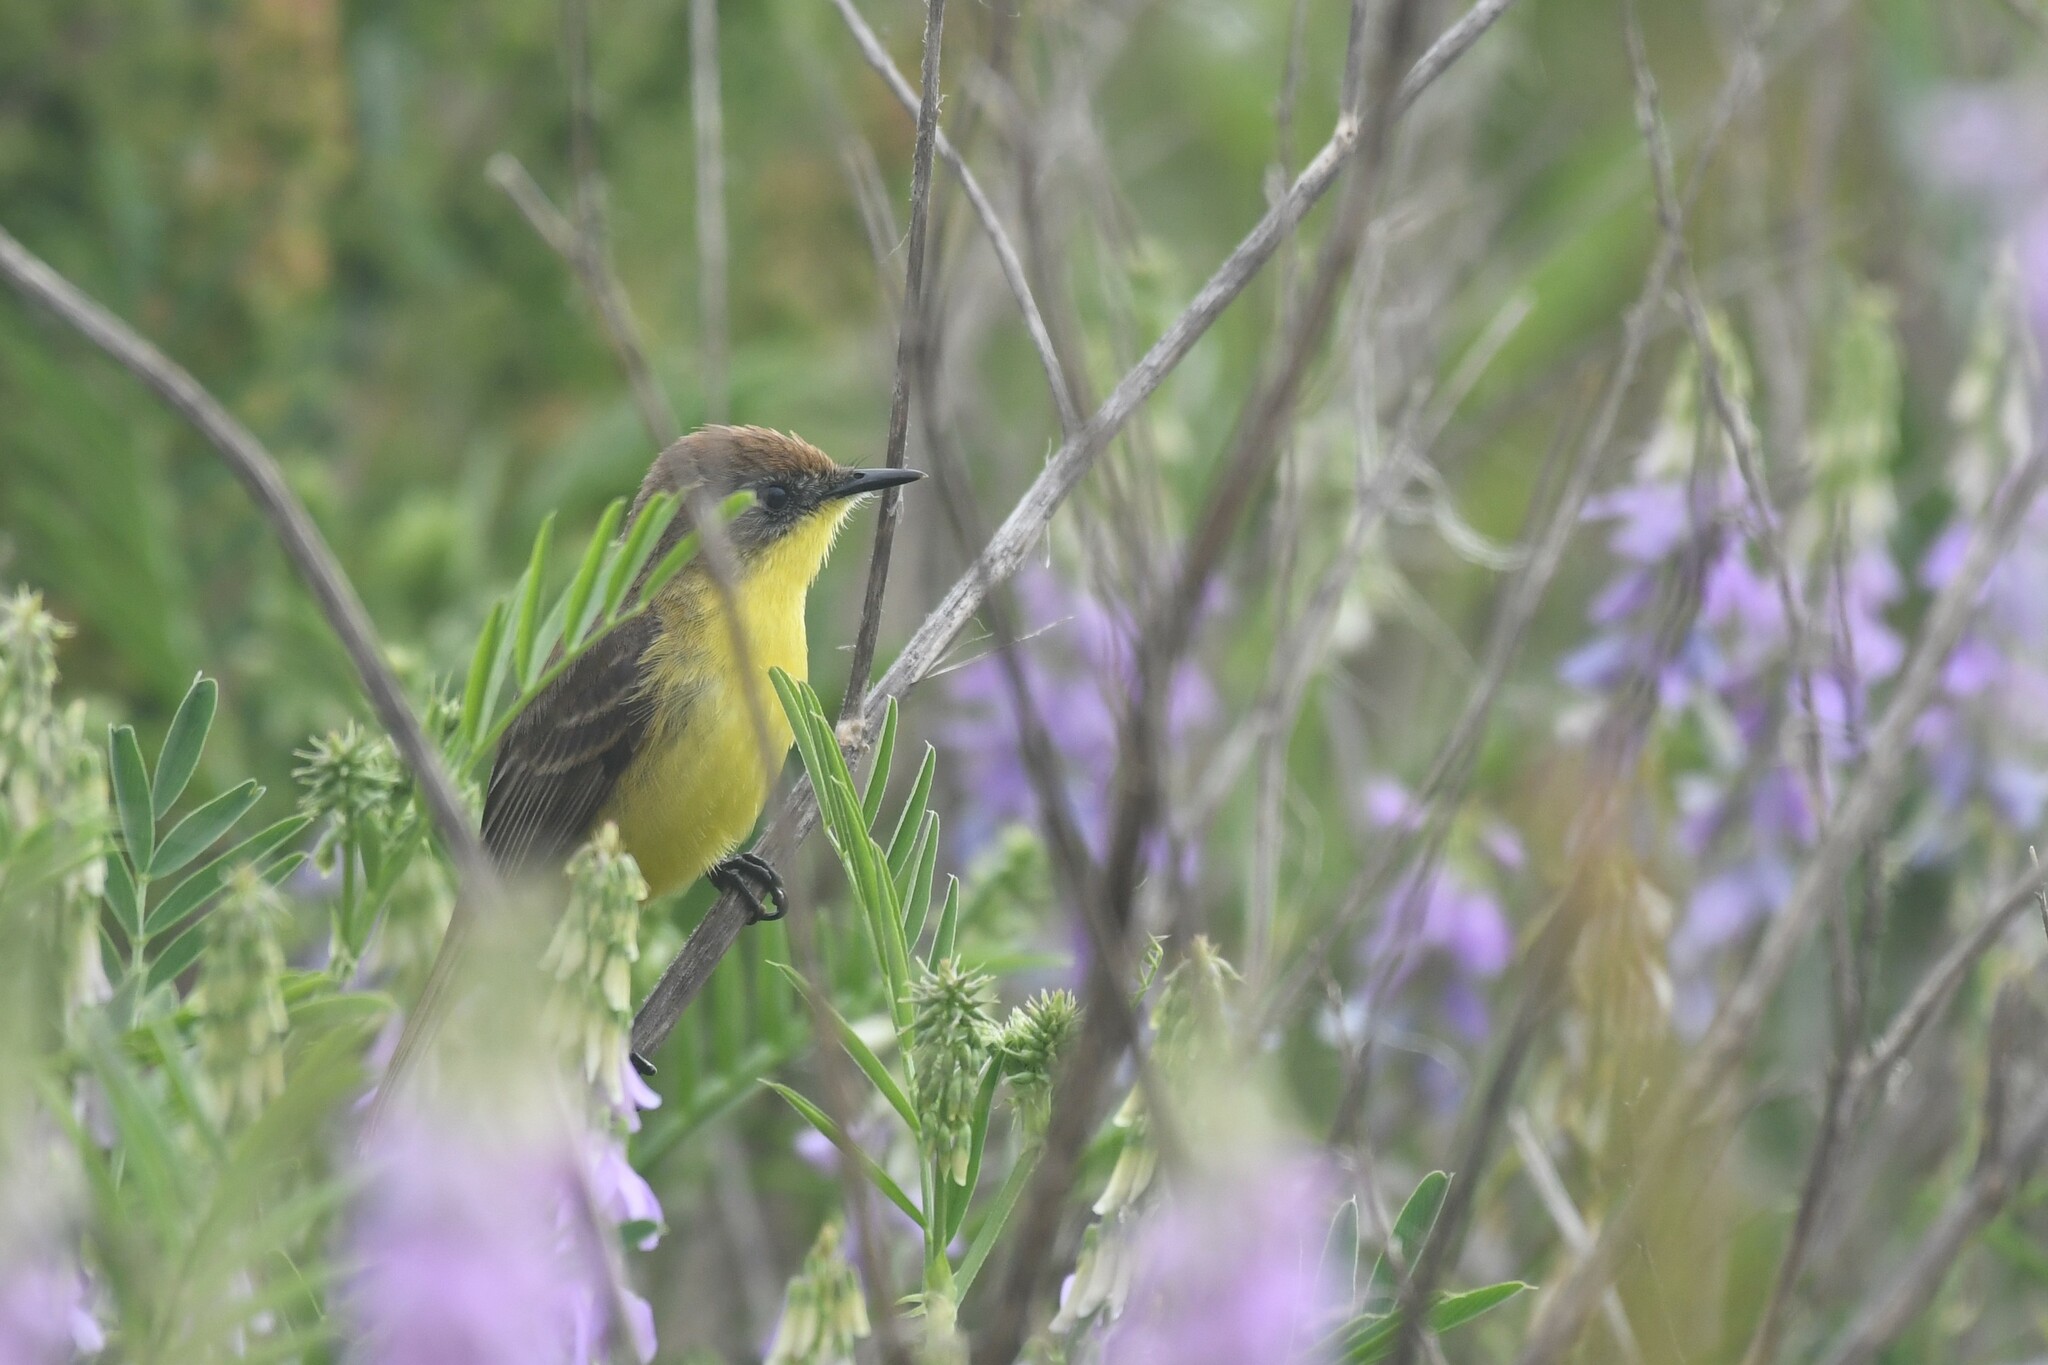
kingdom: Animalia
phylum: Chordata
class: Aves
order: Passeriformes
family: Tyrannidae
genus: Pseudocolopteryx
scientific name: Pseudocolopteryx citreola
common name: Ticking doradito
